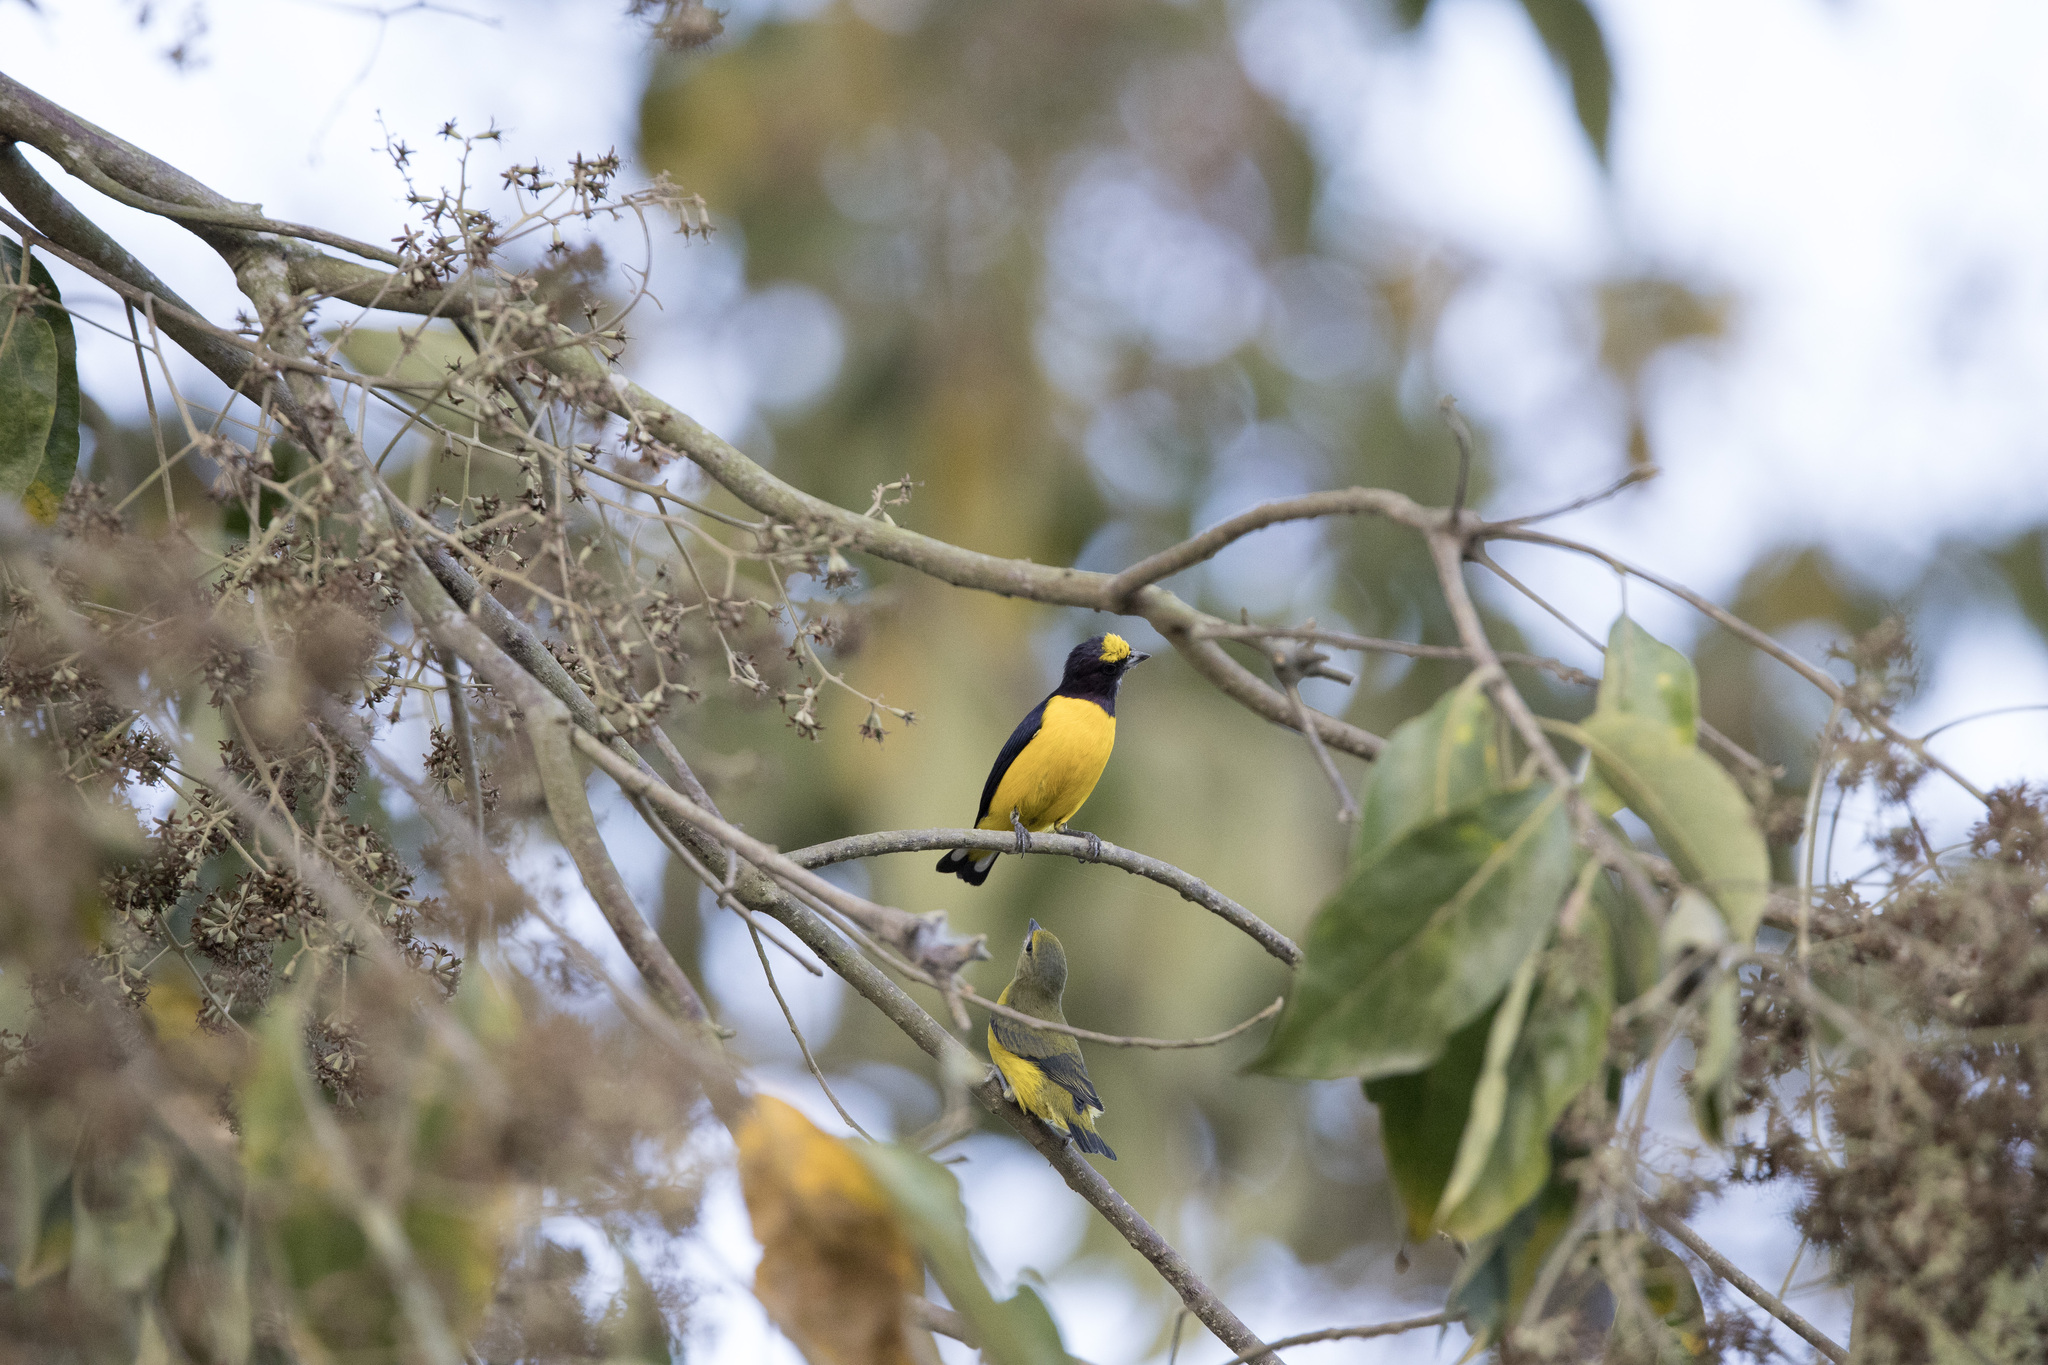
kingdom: Animalia
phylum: Chordata
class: Aves
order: Passeriformes
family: Fringillidae
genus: Euphonia
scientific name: Euphonia chlorotica
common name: Purple-throated euphonia
